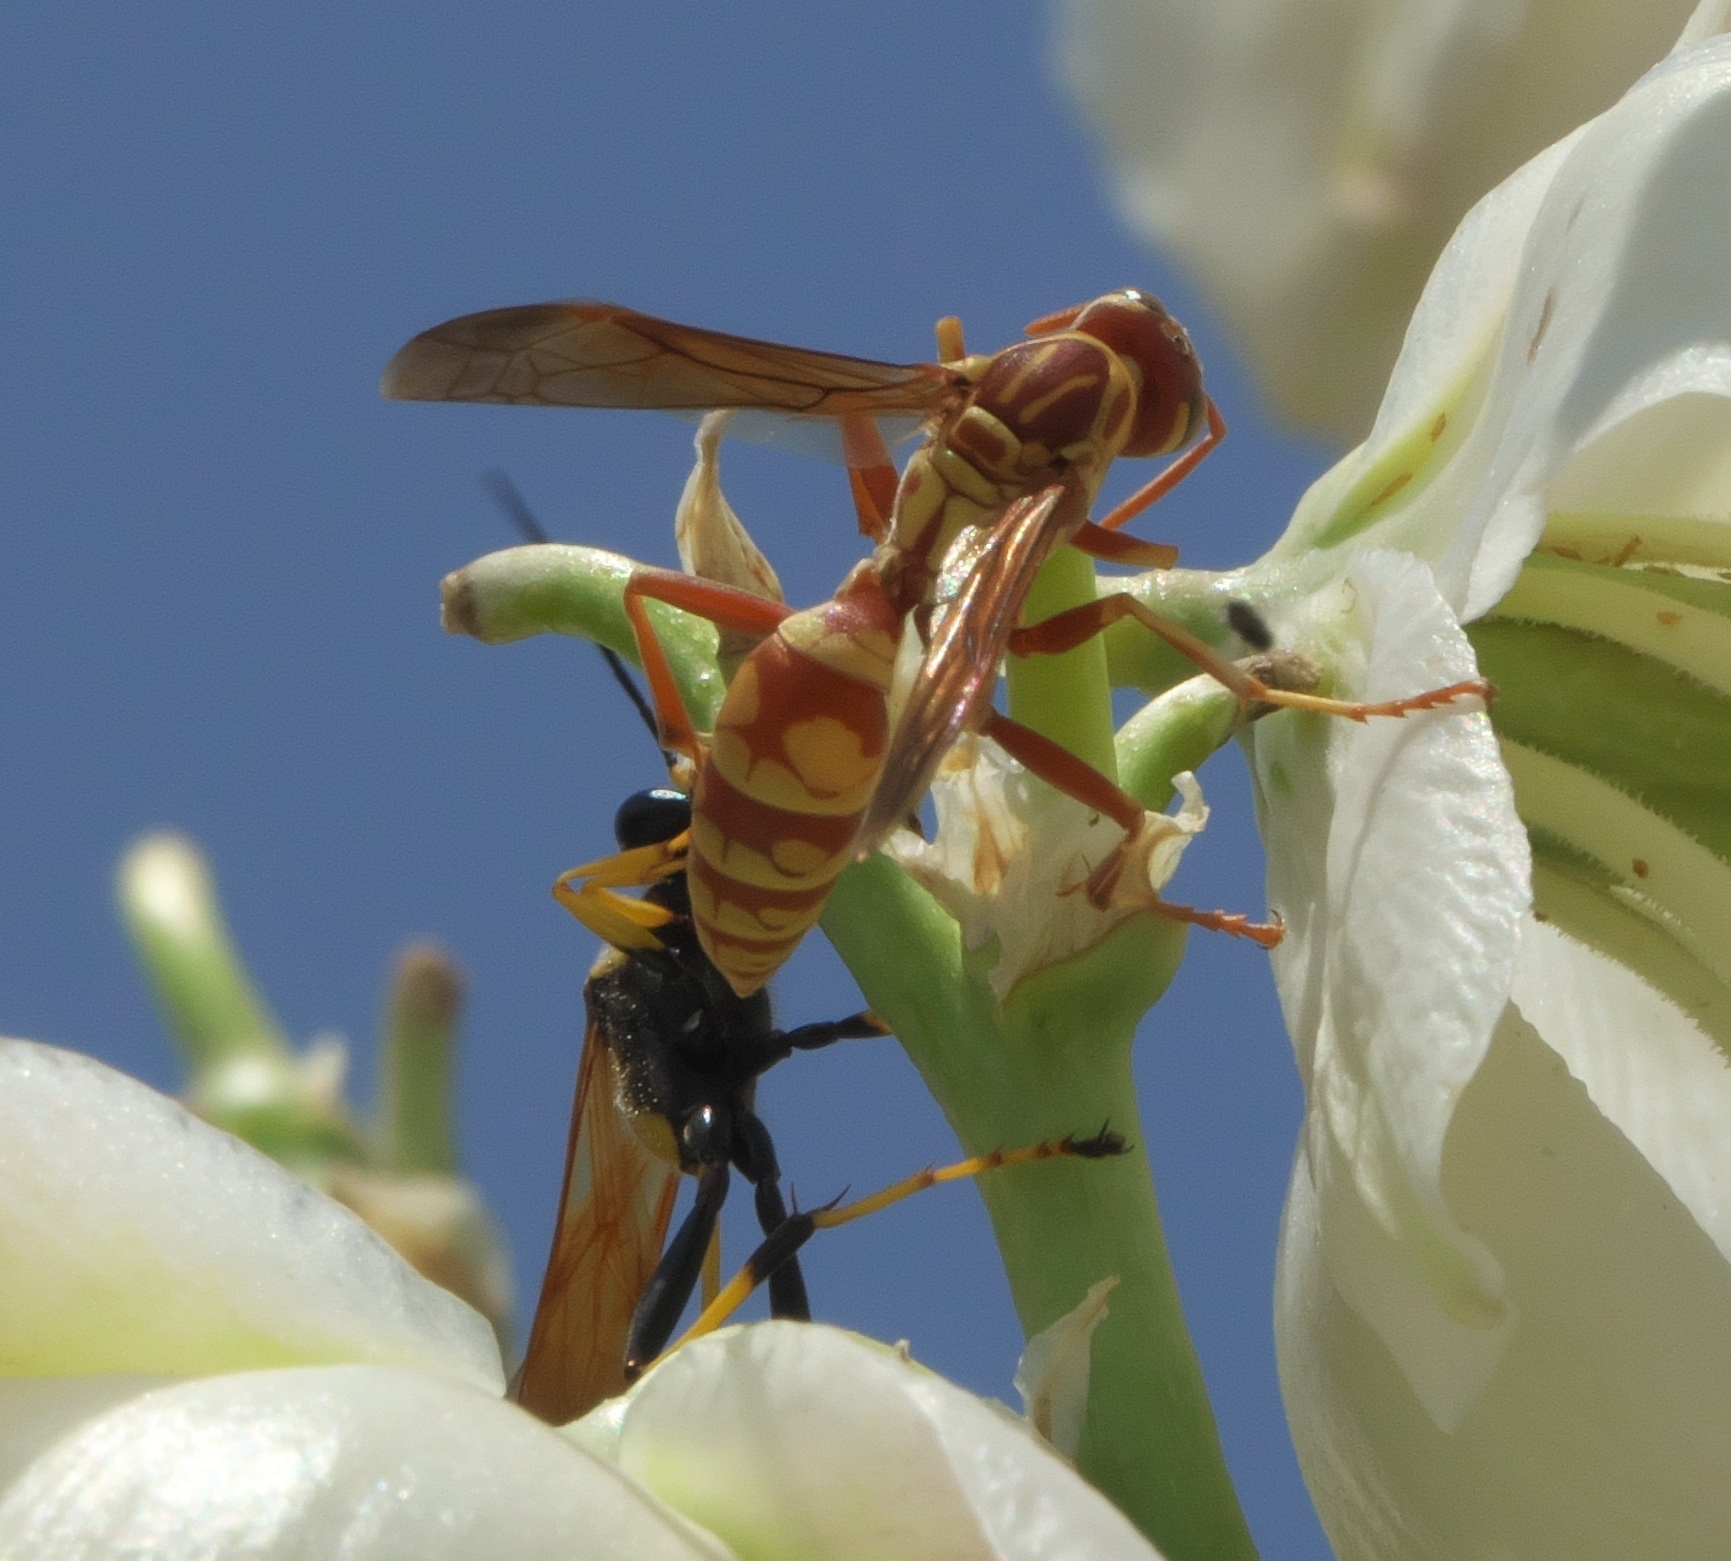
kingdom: Animalia
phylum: Arthropoda
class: Insecta
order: Hymenoptera
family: Eumenidae
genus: Polistes
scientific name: Polistes apachus
